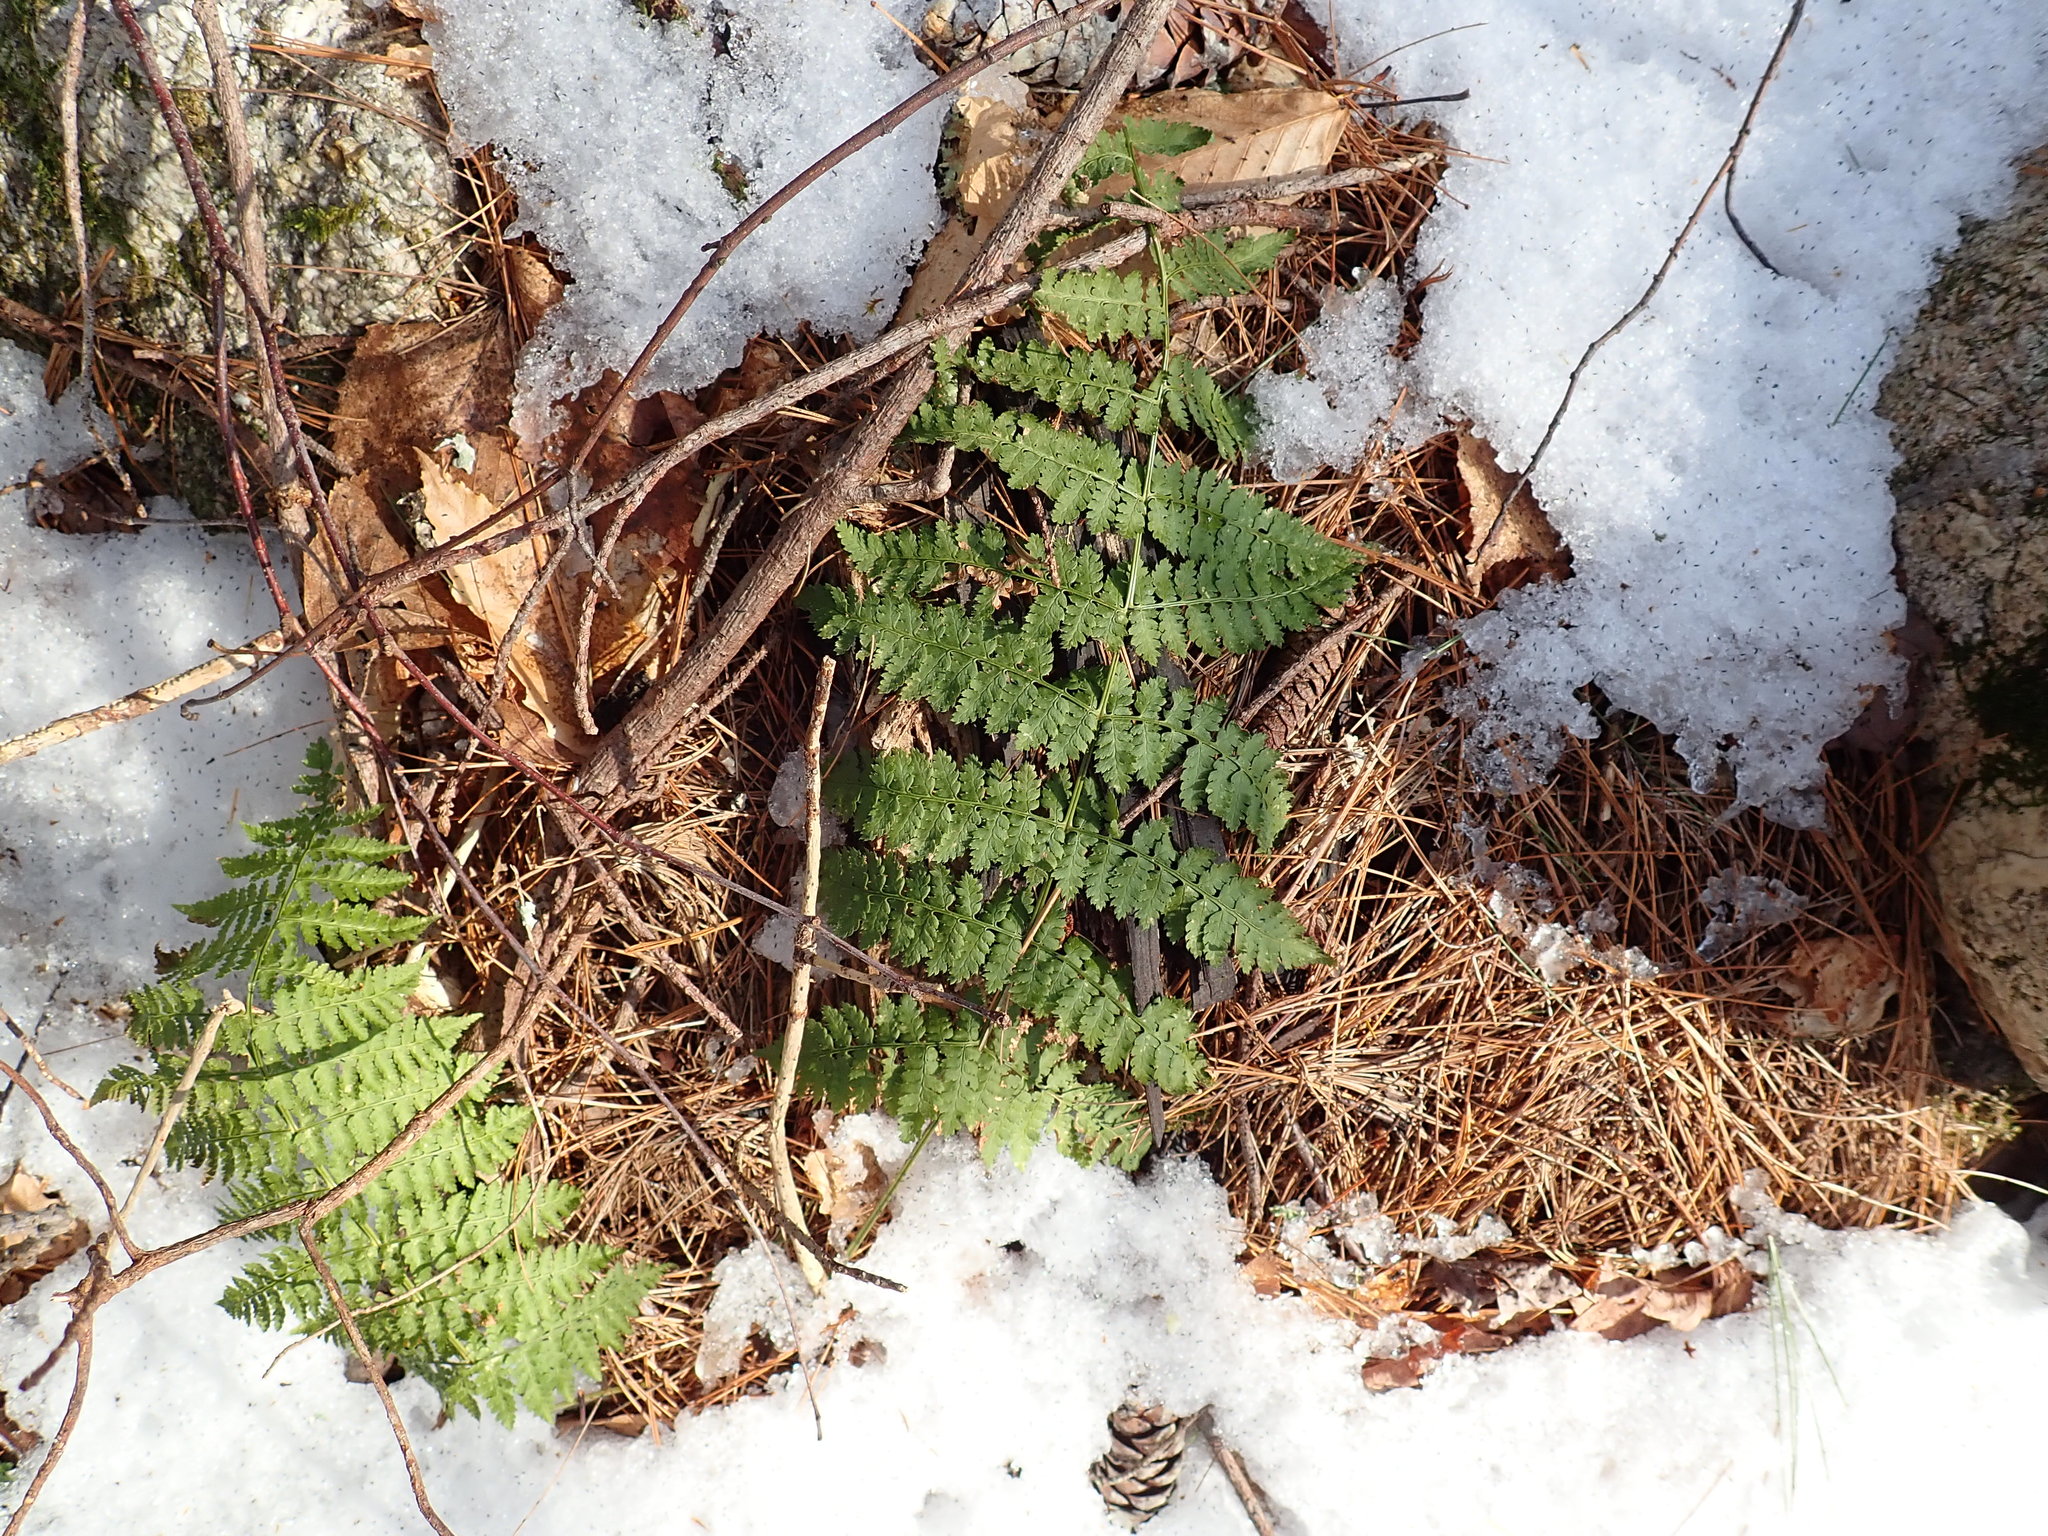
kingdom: Plantae
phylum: Tracheophyta
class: Polypodiopsida
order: Polypodiales
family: Dryopteridaceae
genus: Dryopteris
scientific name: Dryopteris intermedia
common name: Evergreen wood fern
